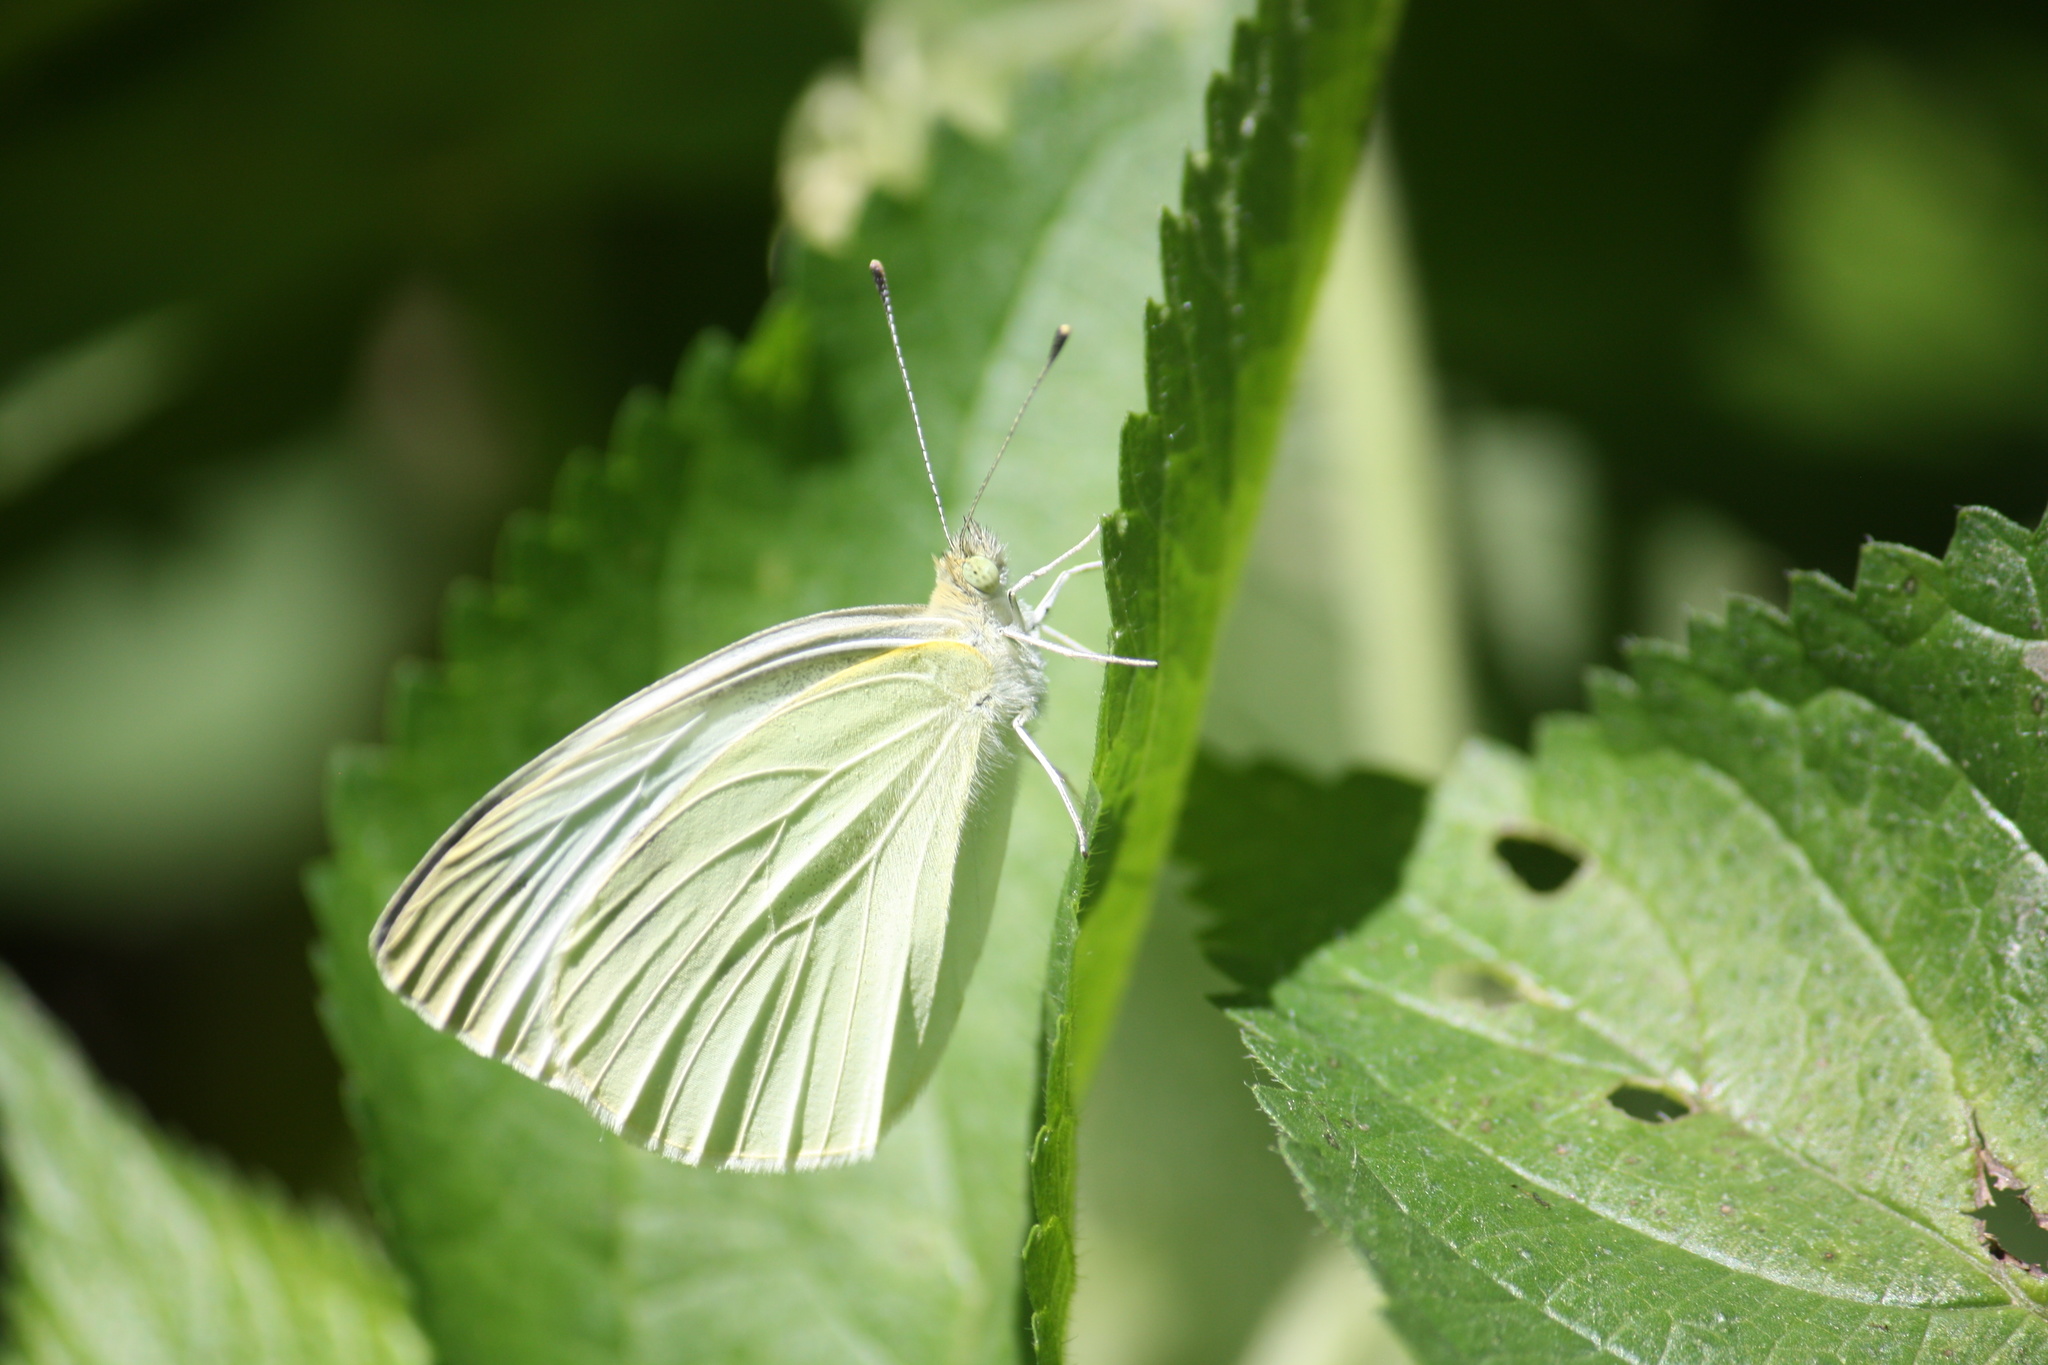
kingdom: Animalia
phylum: Arthropoda
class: Insecta
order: Lepidoptera
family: Pieridae
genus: Pieris
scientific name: Pieris rapae
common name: Small white
